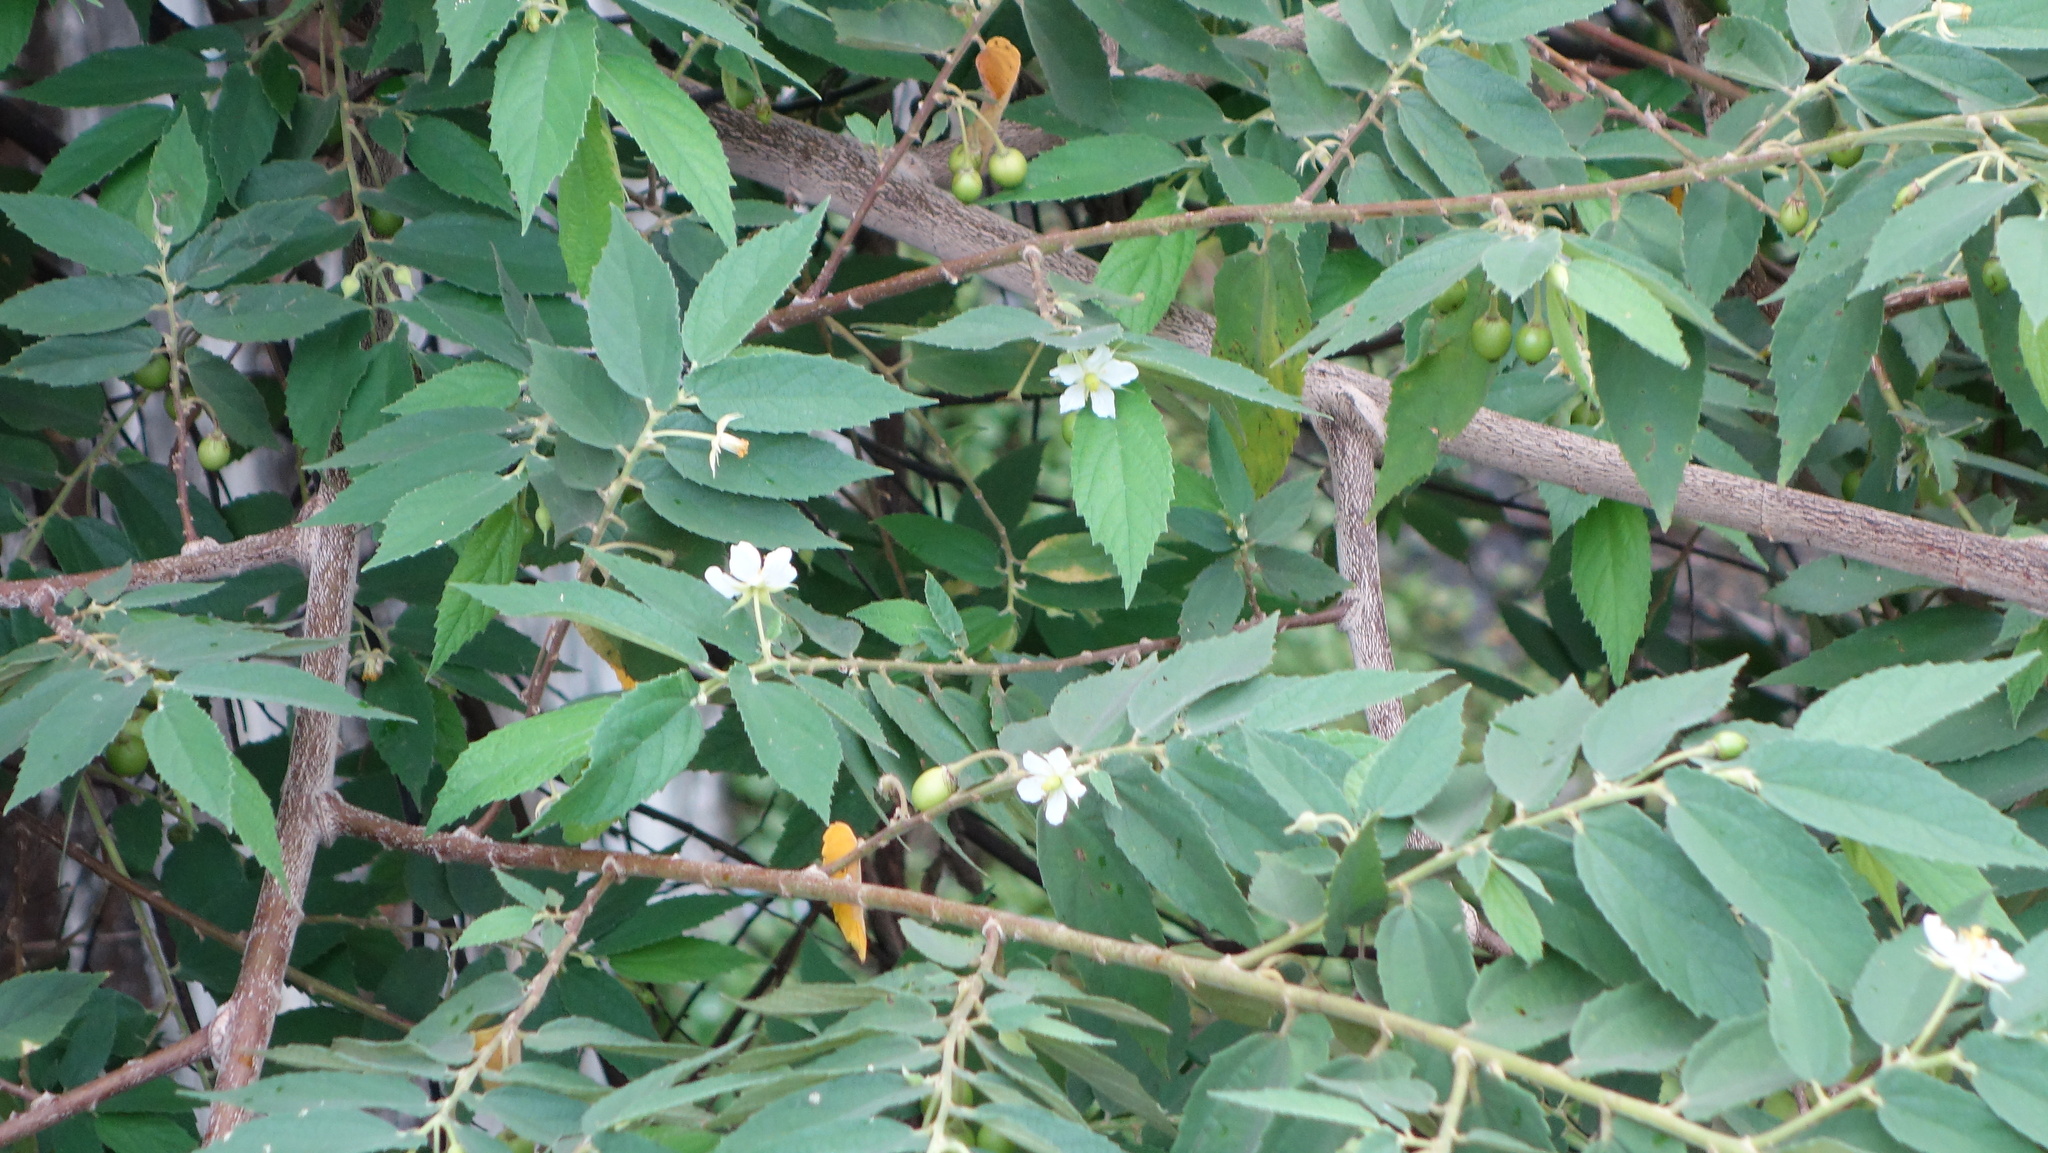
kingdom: Plantae
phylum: Tracheophyta
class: Magnoliopsida
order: Malvales
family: Muntingiaceae
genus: Muntingia
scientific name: Muntingia calabura
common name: Strawberrytree
